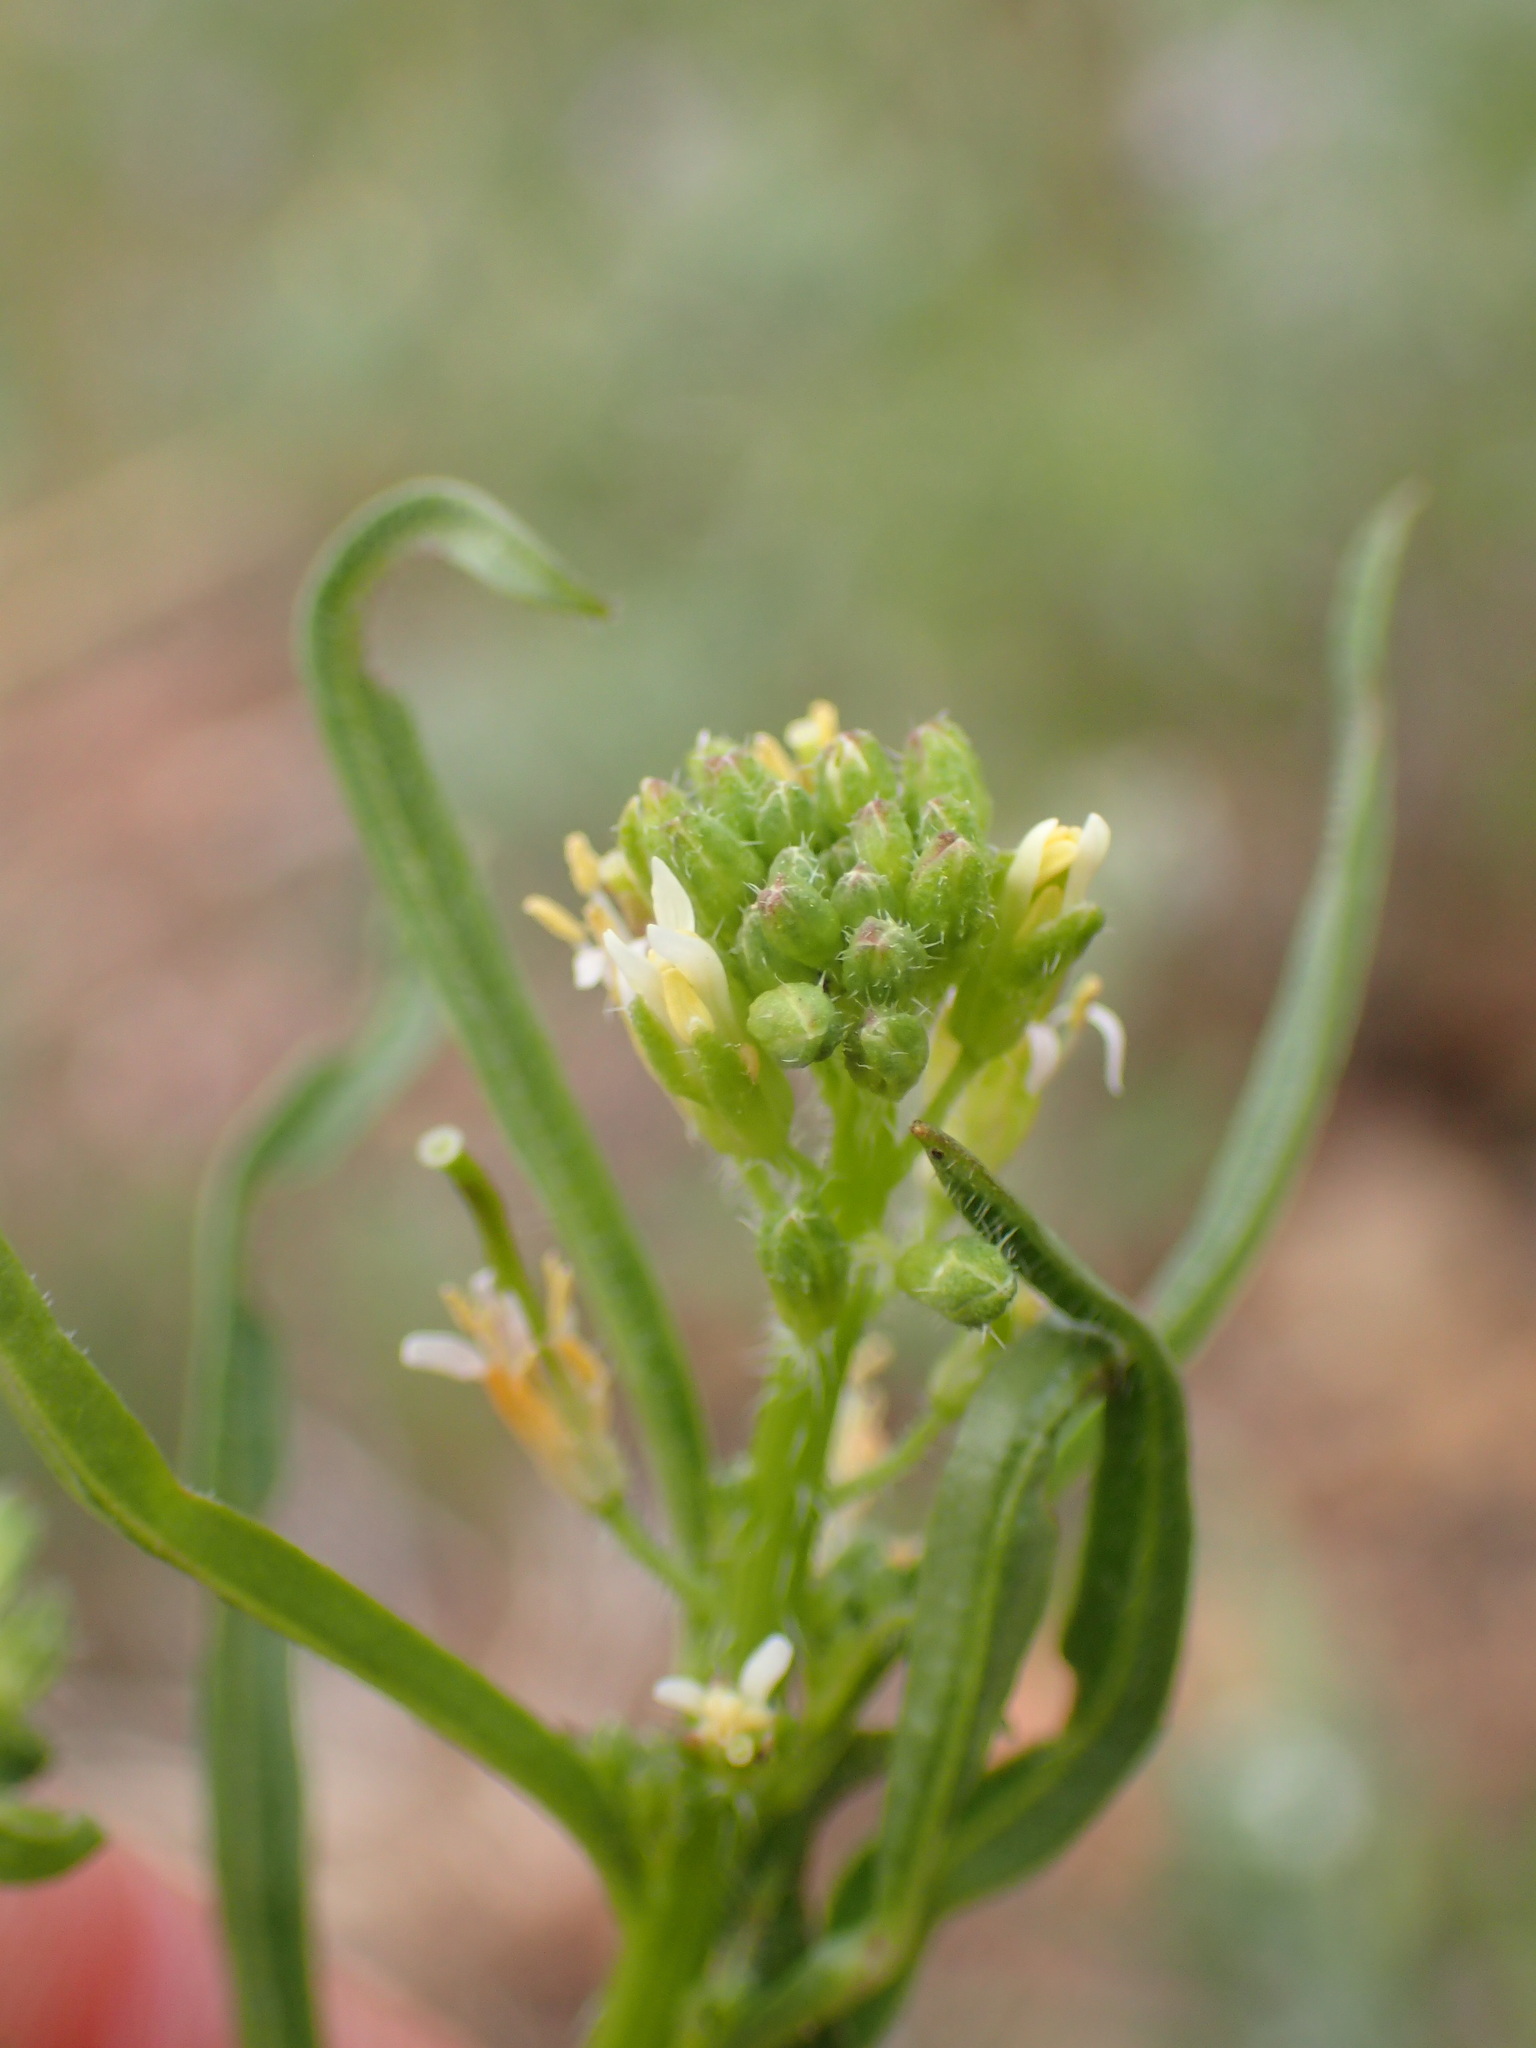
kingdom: Plantae
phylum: Tracheophyta
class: Magnoliopsida
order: Brassicales
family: Brassicaceae
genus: Streptanthus
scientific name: Streptanthus lasiophyllus
